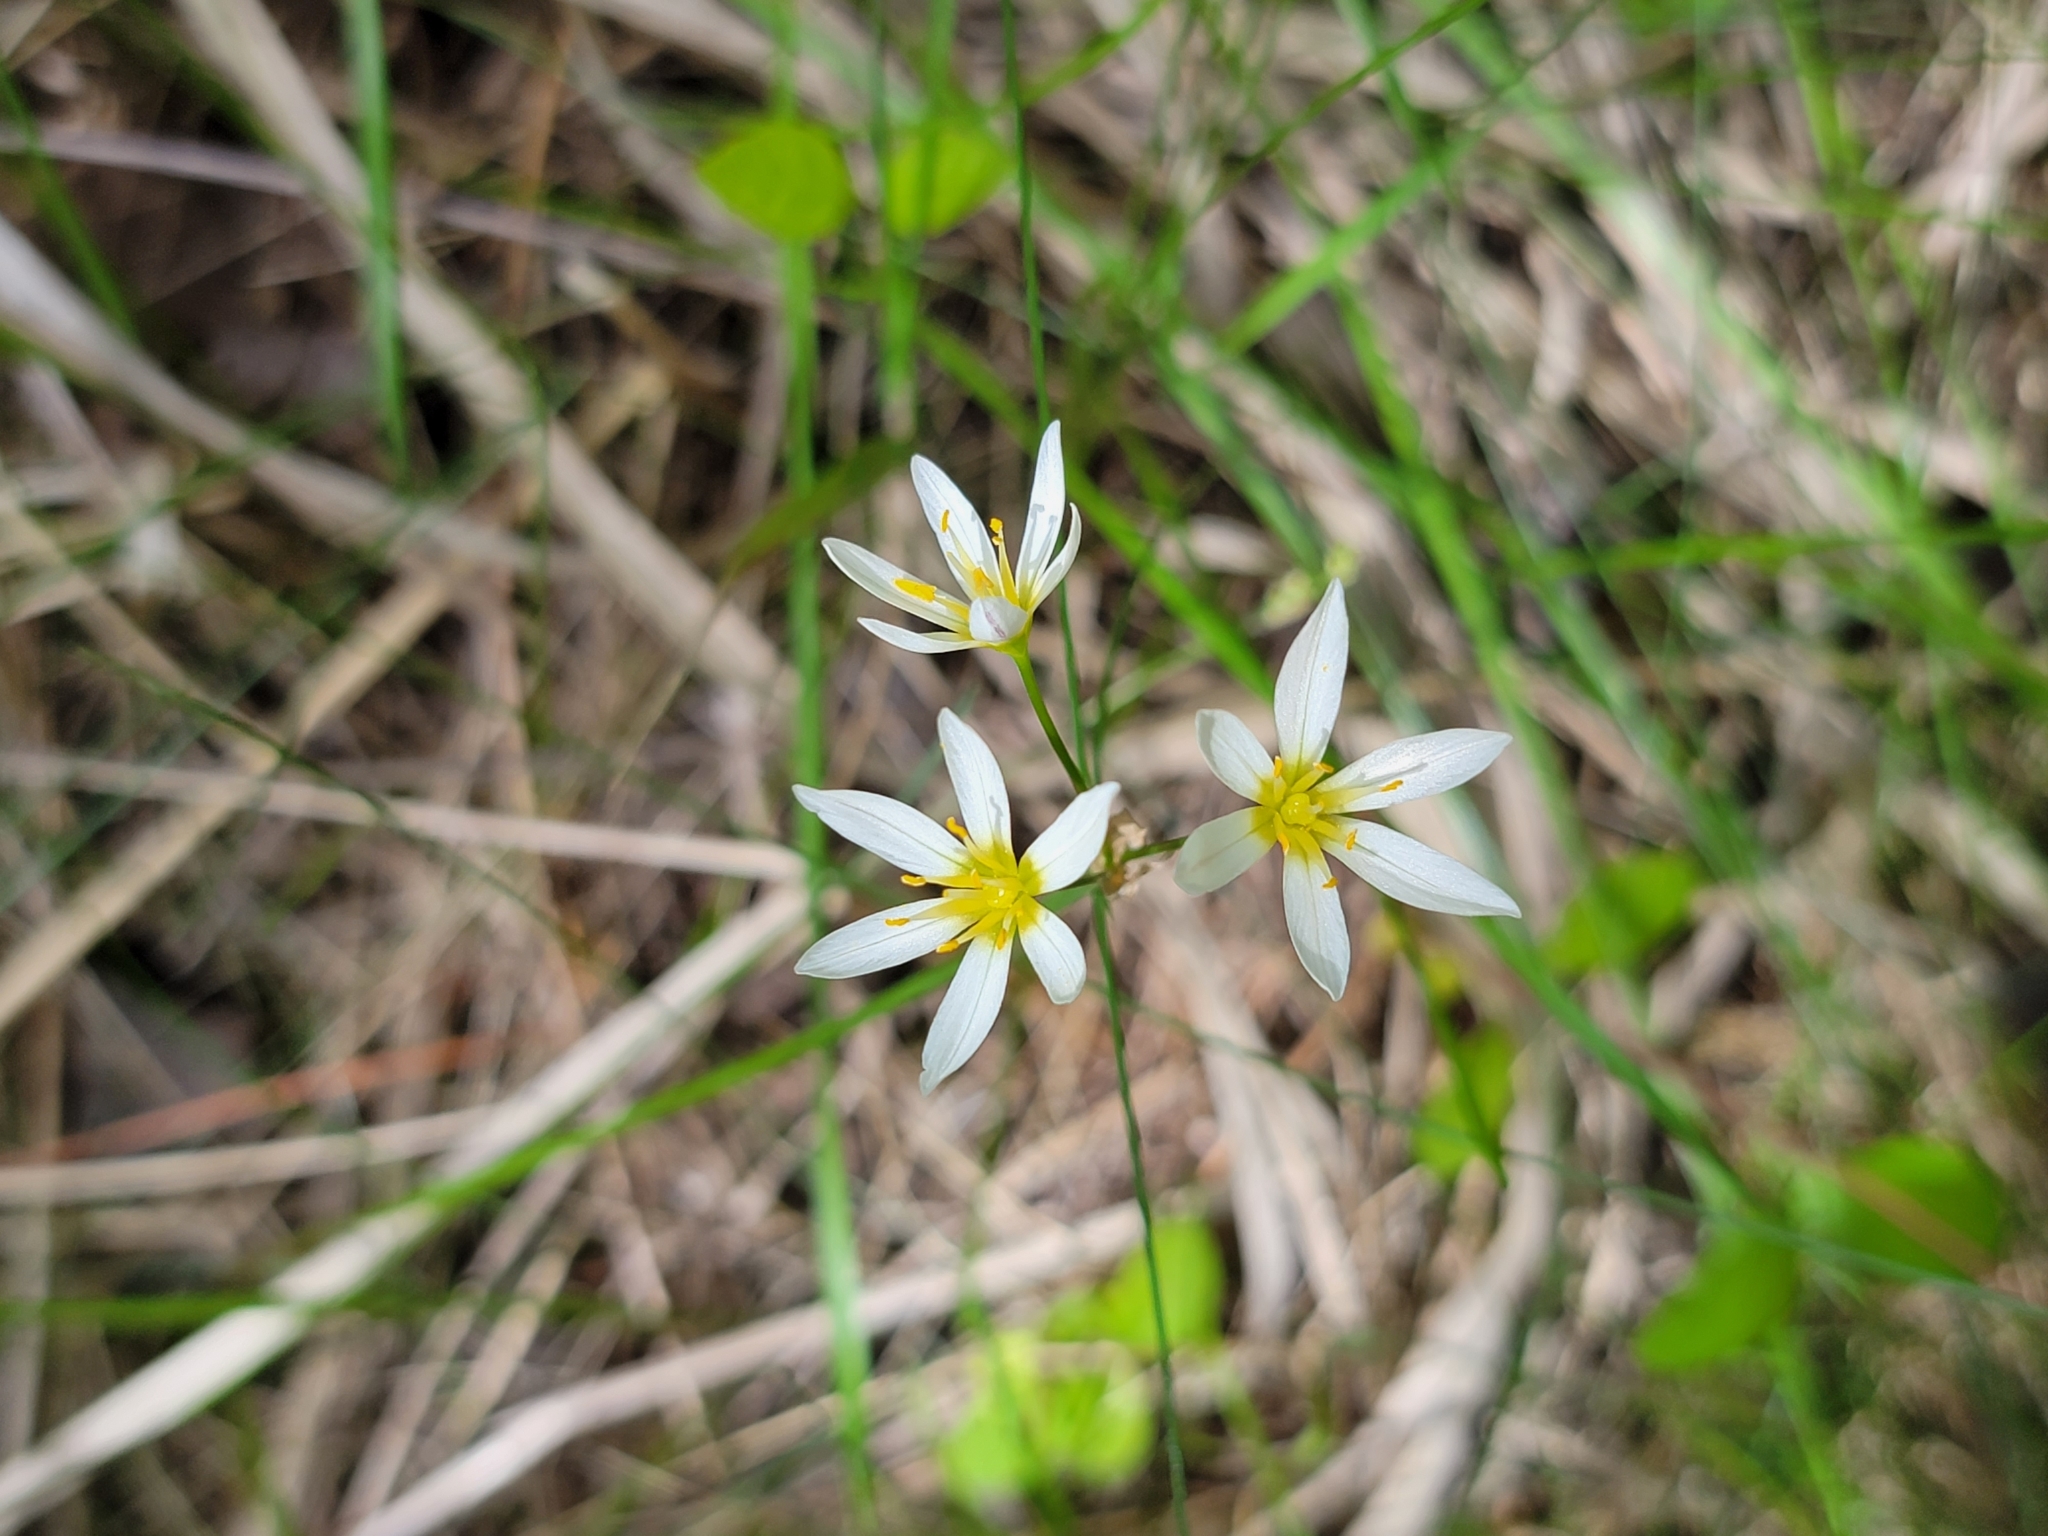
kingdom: Plantae
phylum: Tracheophyta
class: Liliopsida
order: Asparagales
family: Amaryllidaceae
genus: Nothoscordum
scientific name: Nothoscordum bivalve
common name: Crow-poison
